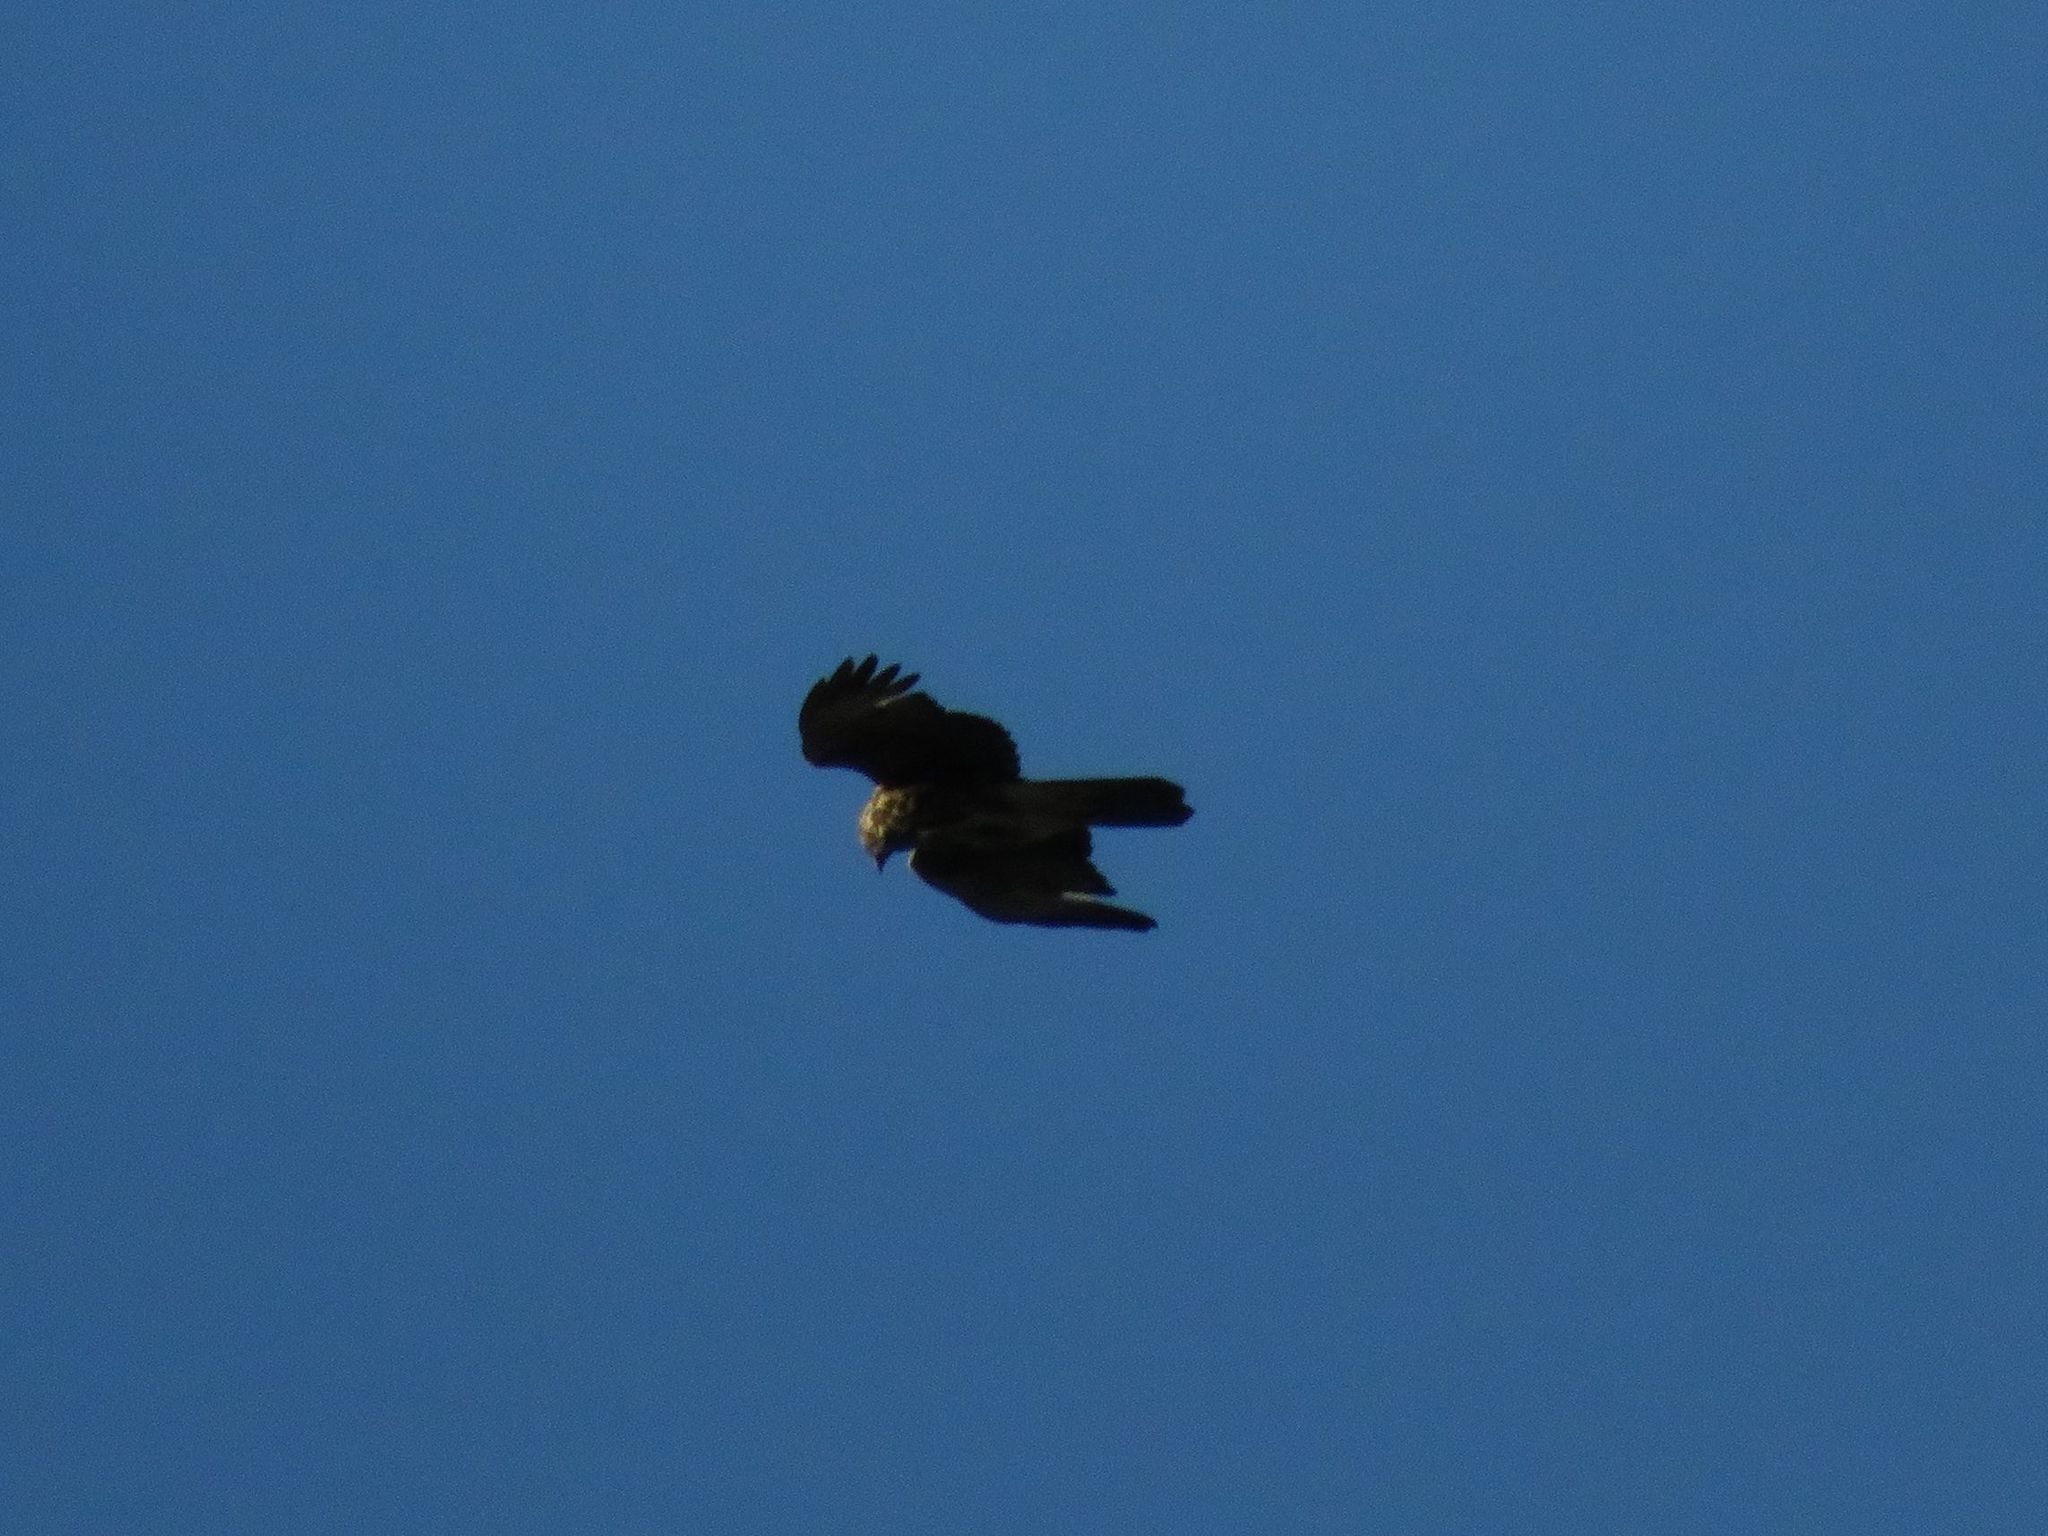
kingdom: Animalia
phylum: Chordata
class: Aves
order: Accipitriformes
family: Accipitridae
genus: Parabuteo
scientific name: Parabuteo unicinctus
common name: Harris's hawk
